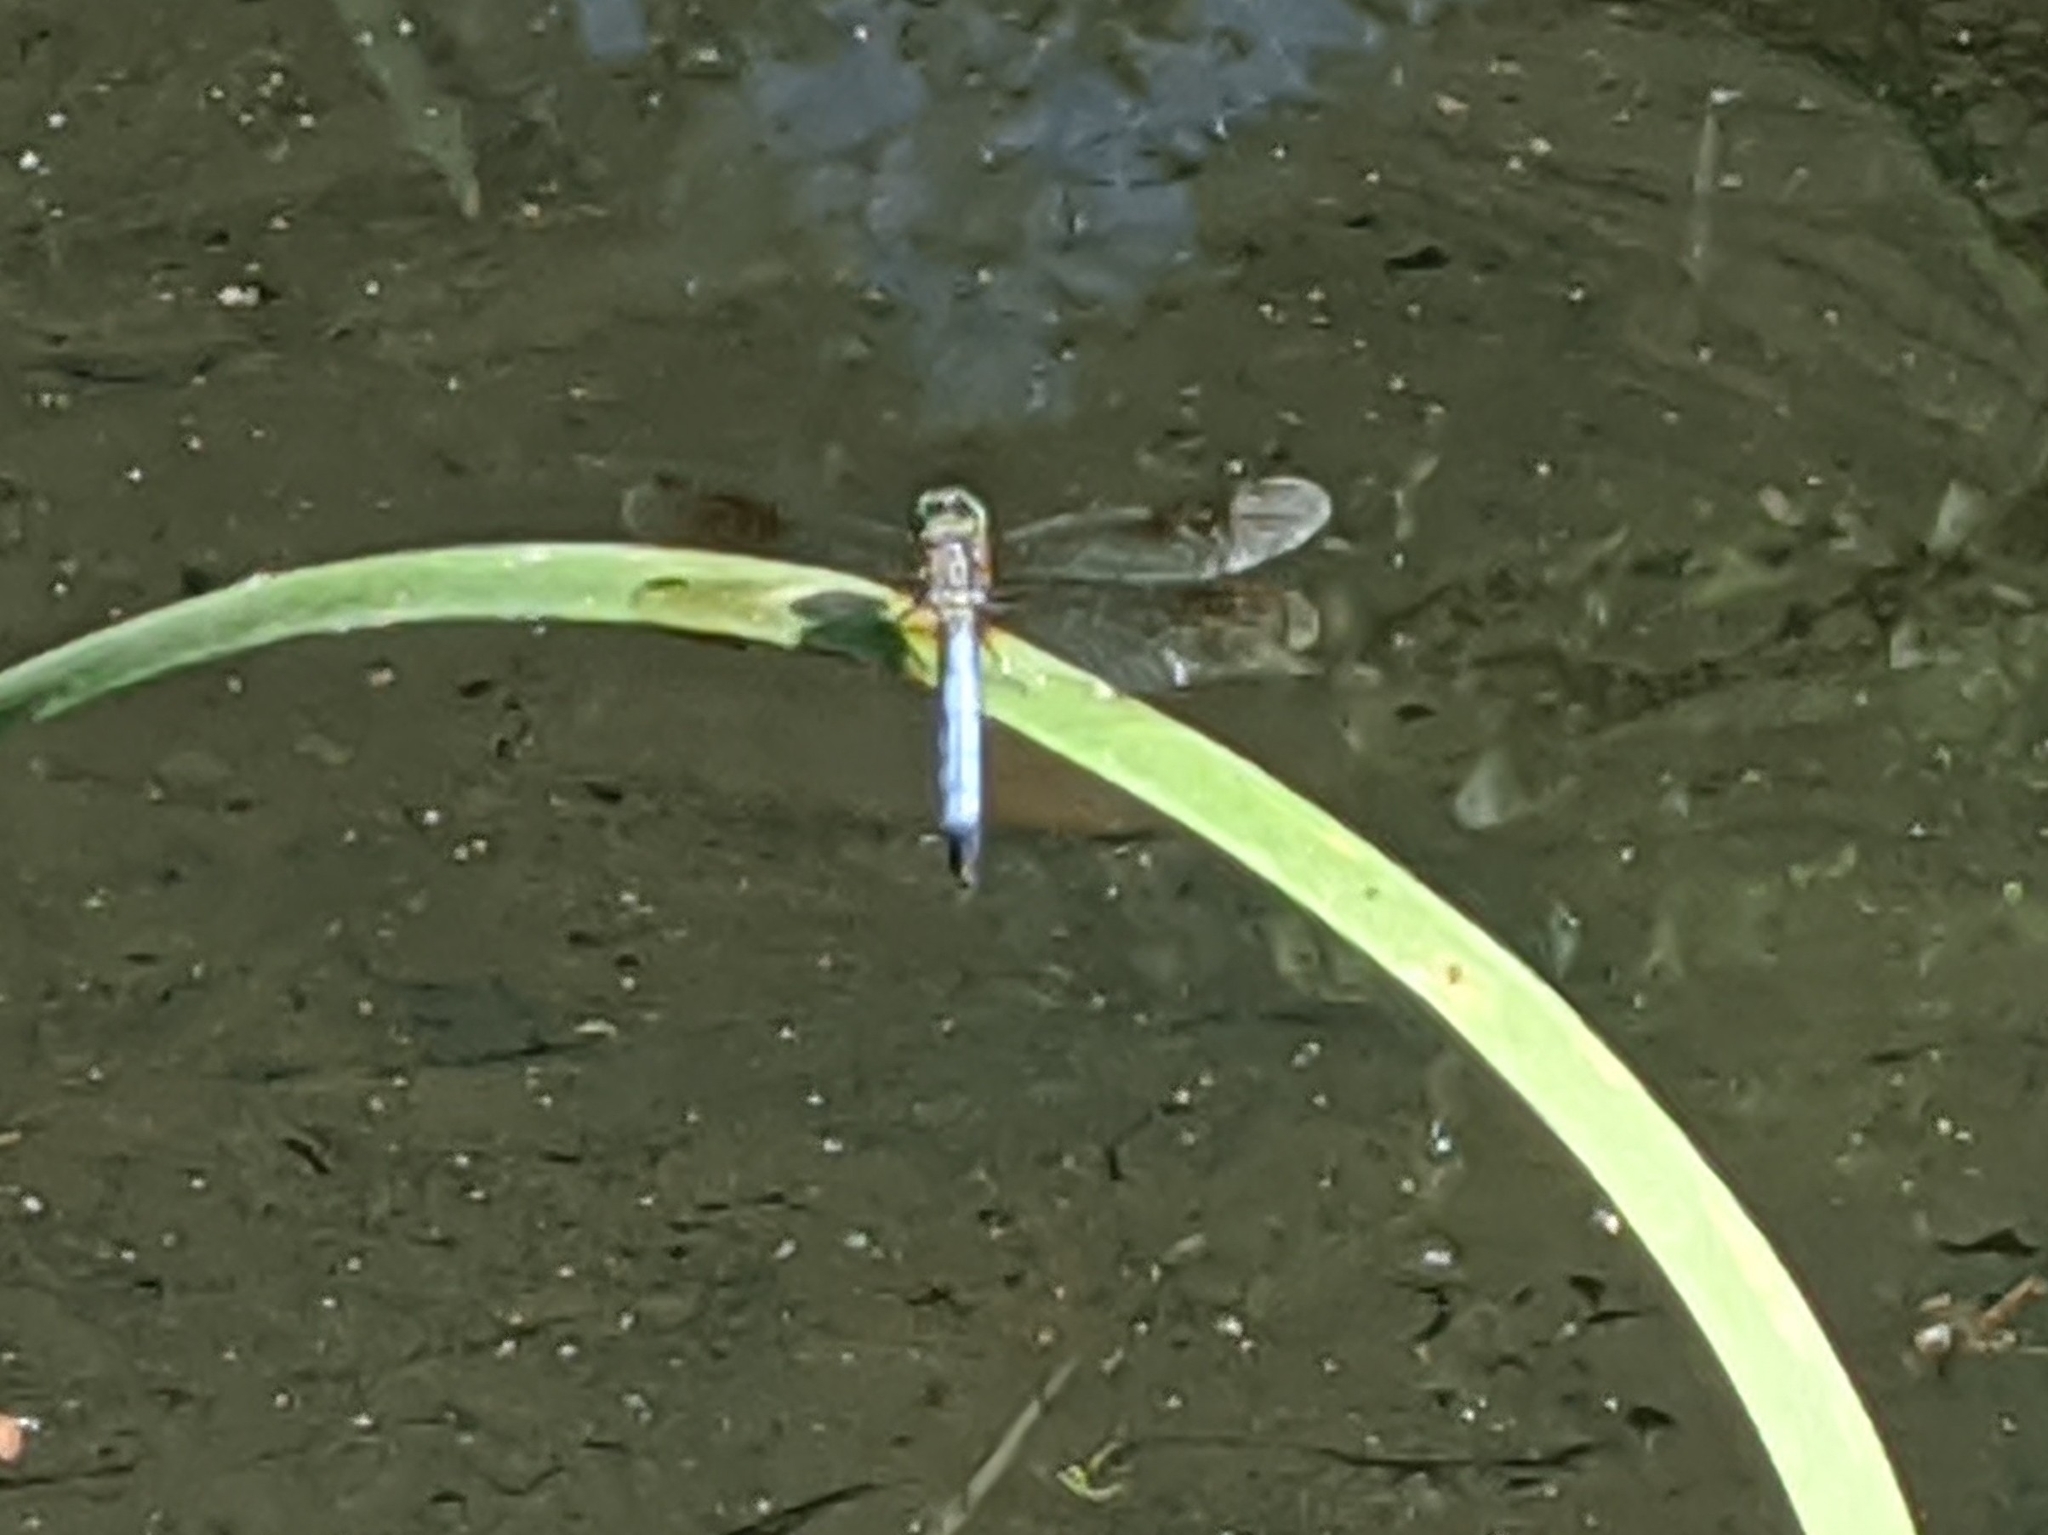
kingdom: Animalia
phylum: Arthropoda
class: Insecta
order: Odonata
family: Libellulidae
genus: Pachydiplax
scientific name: Pachydiplax longipennis
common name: Blue dasher
